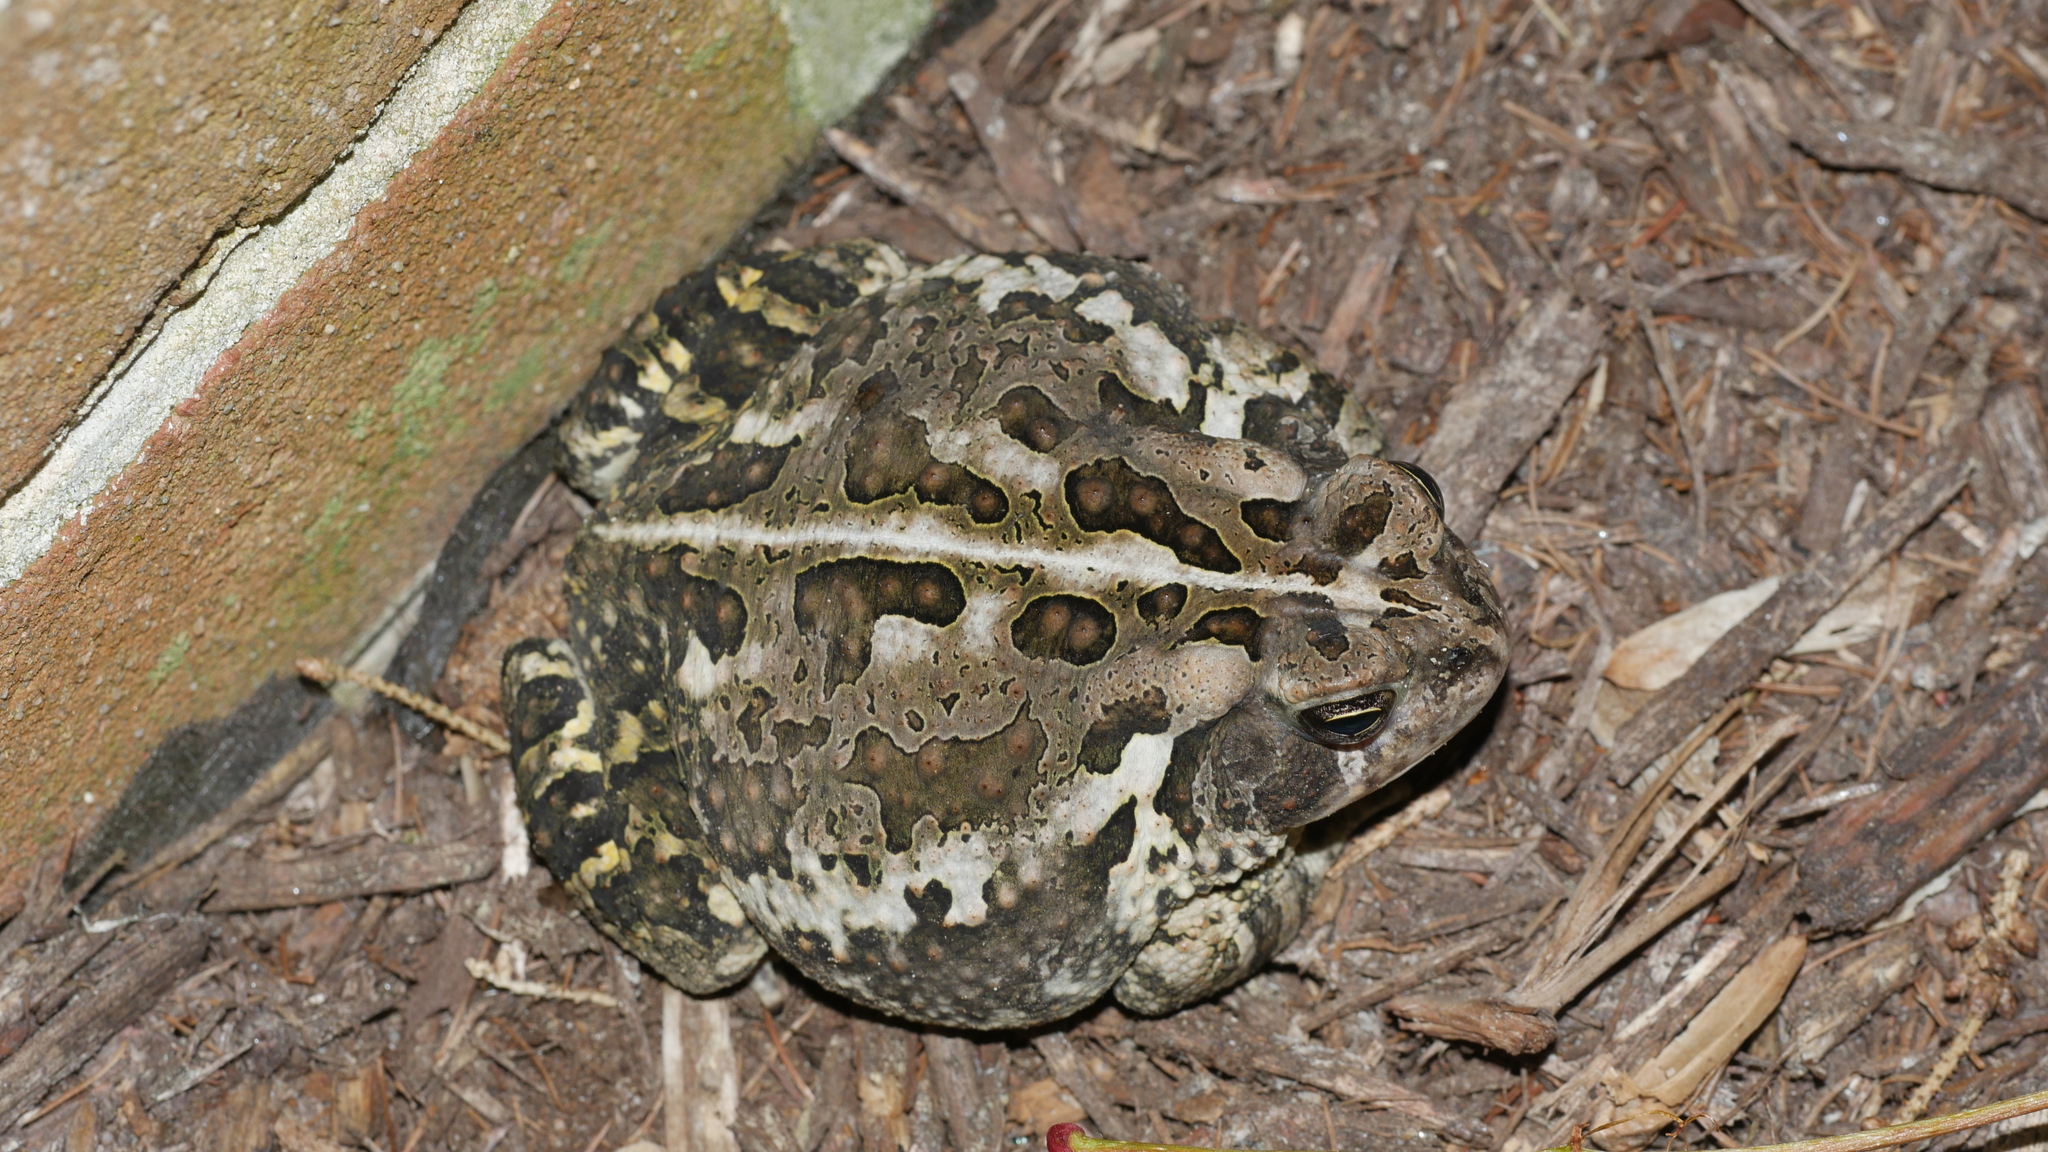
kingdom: Animalia
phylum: Chordata
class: Amphibia
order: Anura
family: Bufonidae
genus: Anaxyrus
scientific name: Anaxyrus fowleri
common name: Fowler's toad
